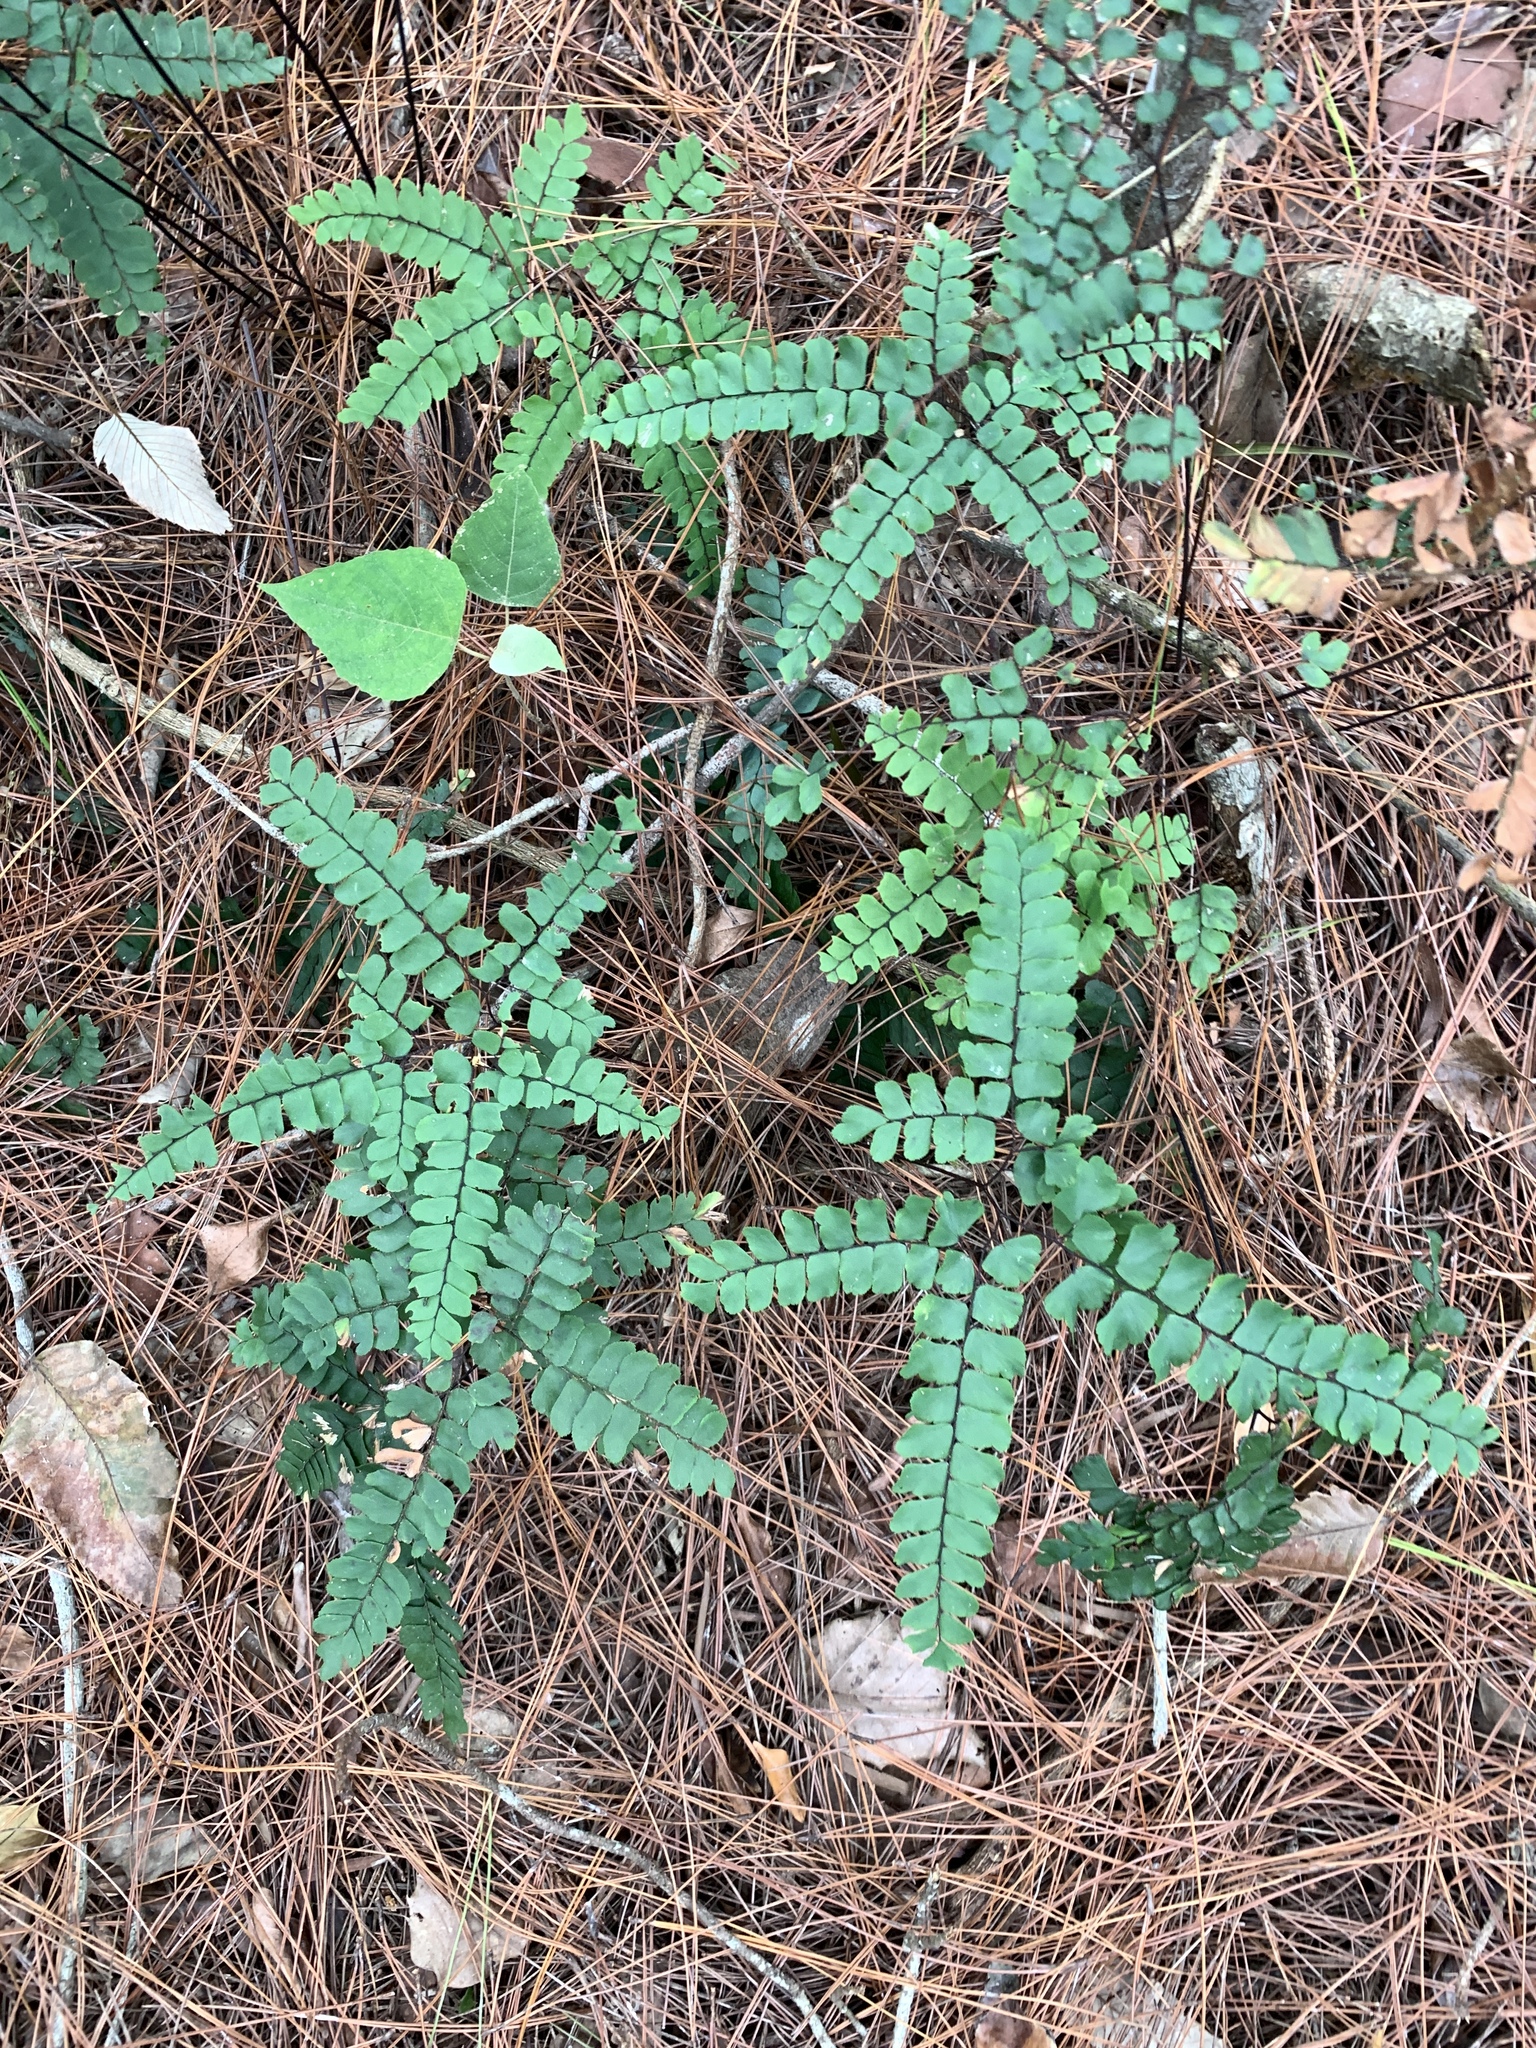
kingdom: Plantae
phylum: Tracheophyta
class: Polypodiopsida
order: Polypodiales
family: Pteridaceae
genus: Adiantum
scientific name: Adiantum flabellulatum
